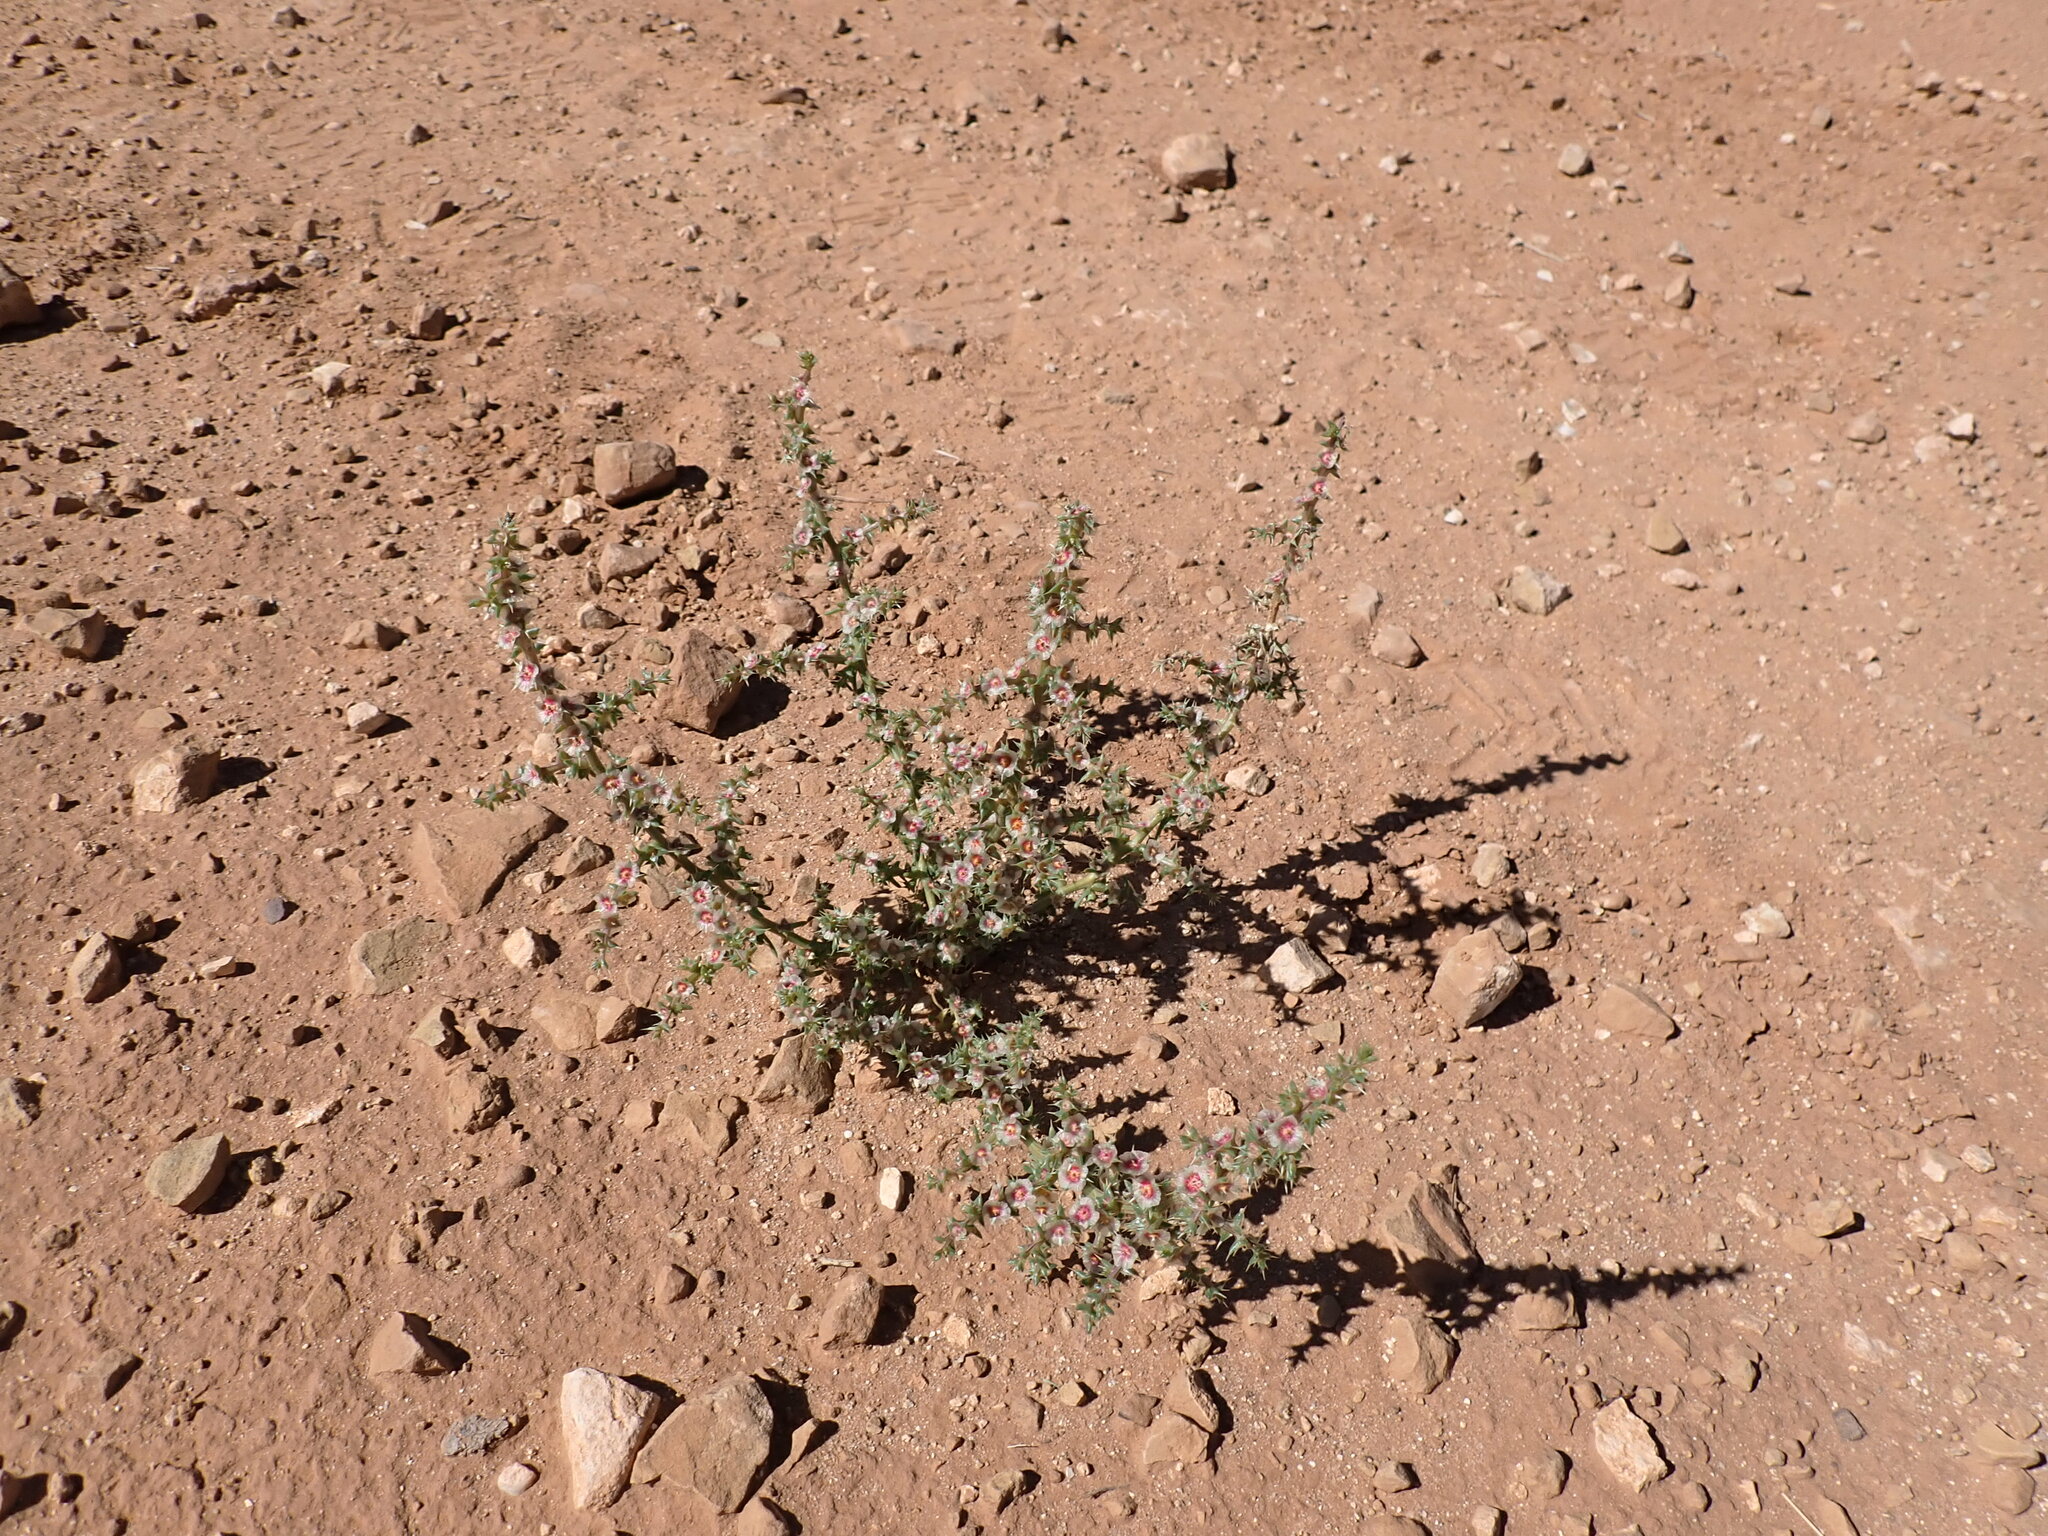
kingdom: Plantae
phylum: Tracheophyta
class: Magnoliopsida
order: Caryophyllales
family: Amaranthaceae
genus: Salsola
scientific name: Salsola tragus
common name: Prickly russian thistle
